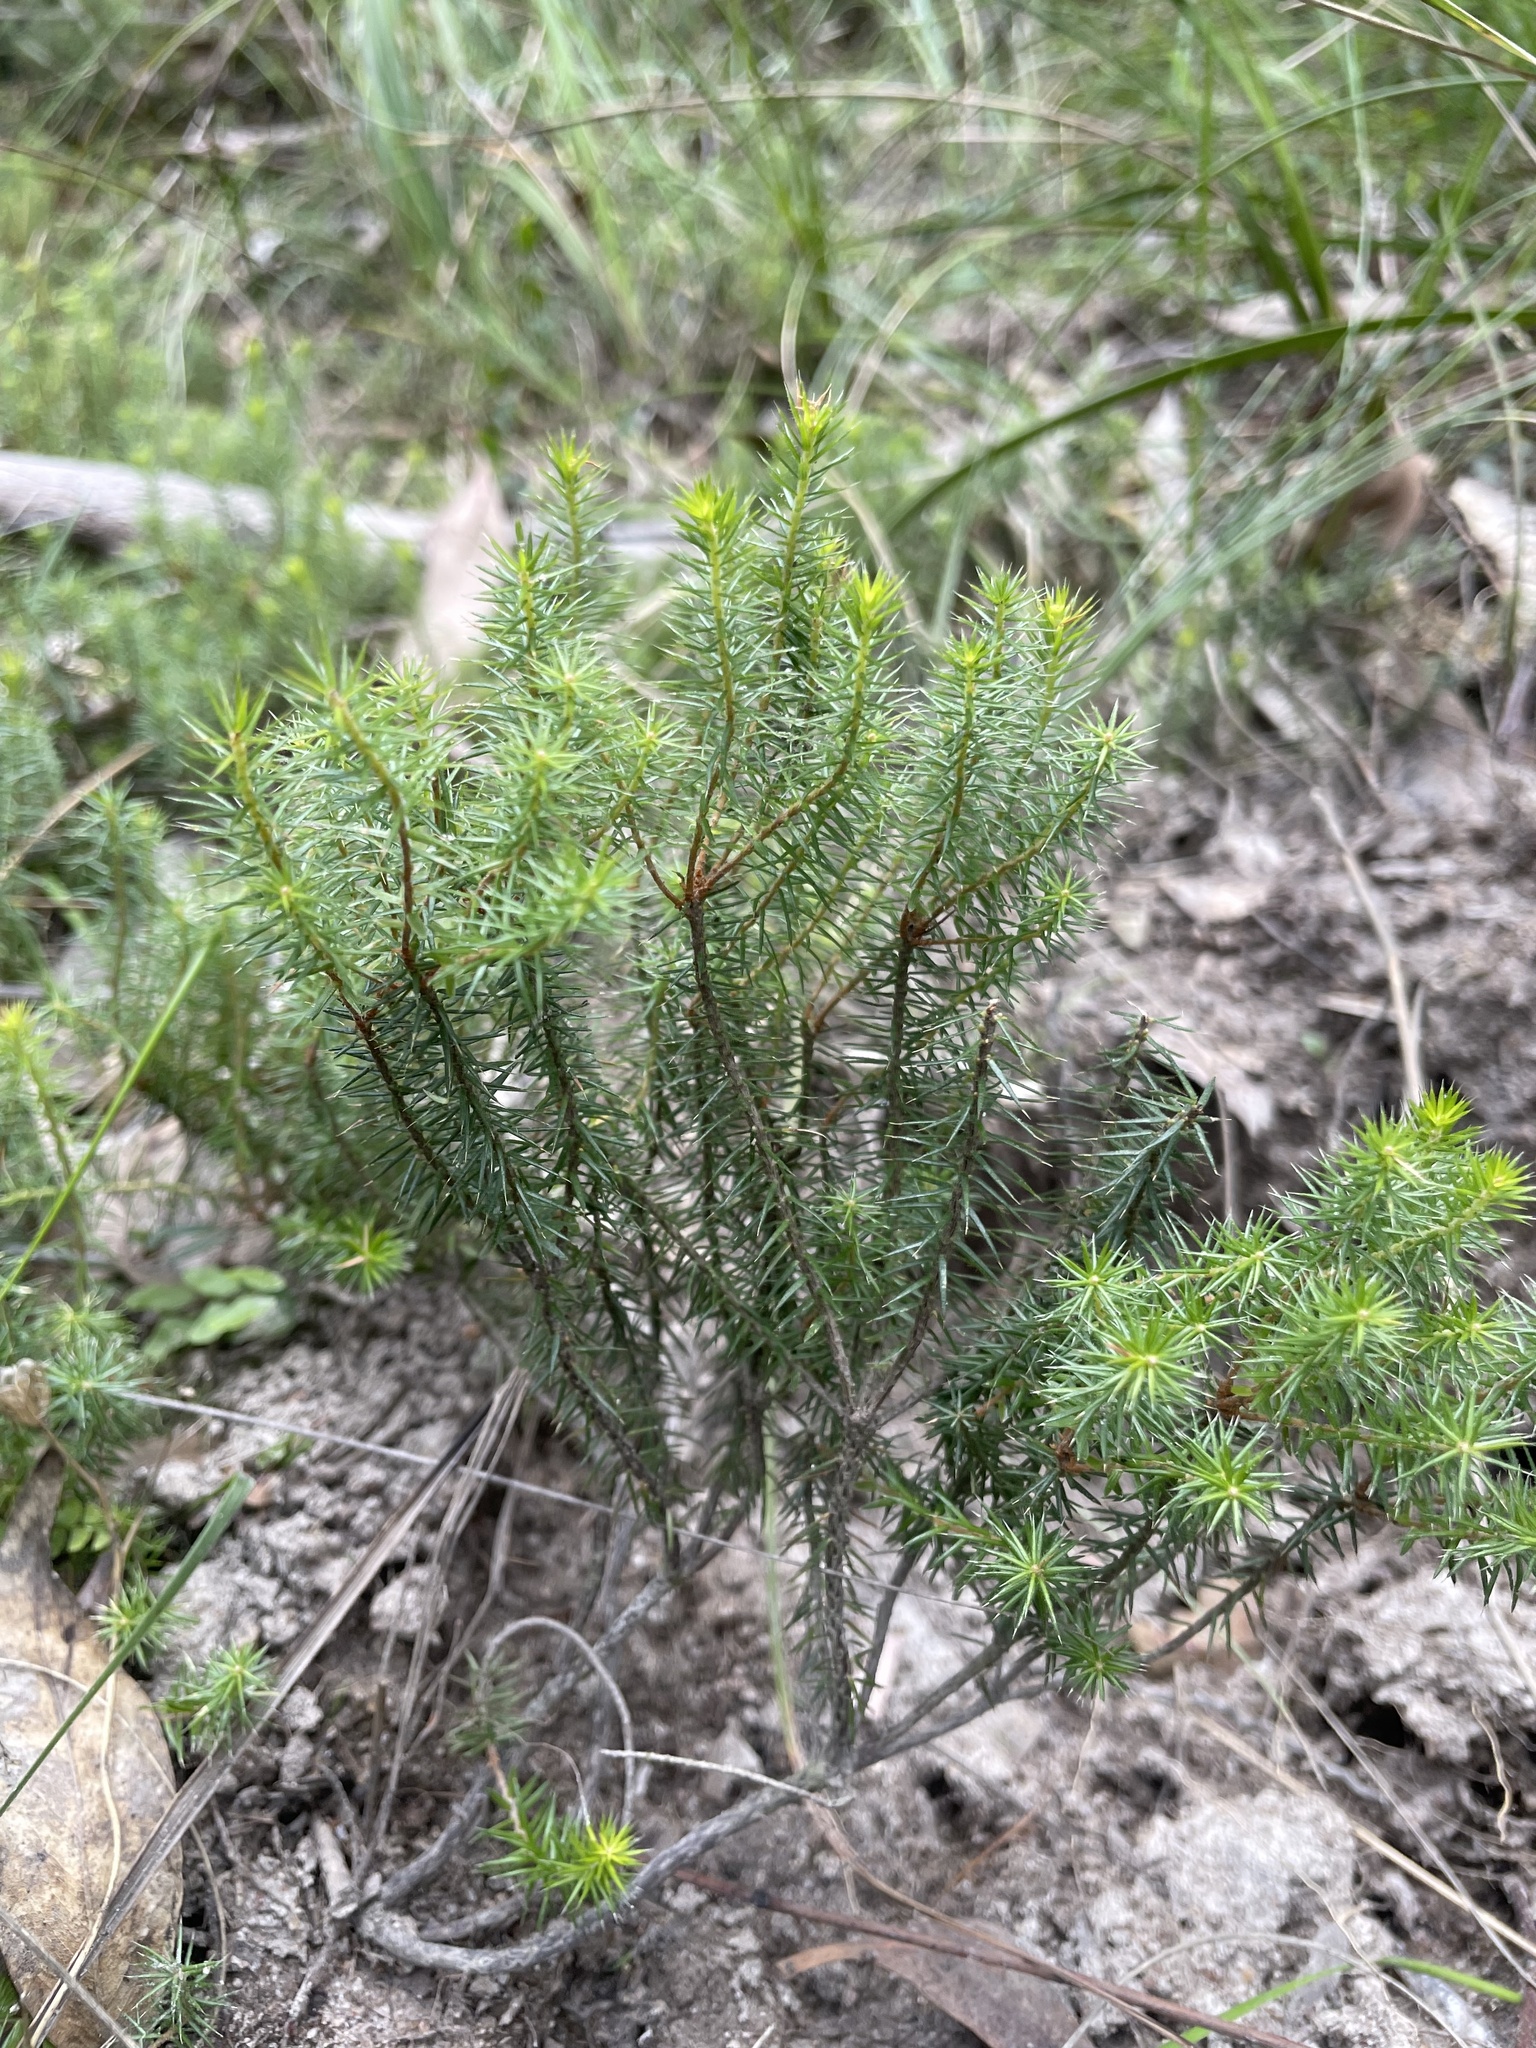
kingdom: Plantae
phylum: Tracheophyta
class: Magnoliopsida
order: Ericales
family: Ericaceae
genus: Acrotriche
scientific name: Acrotriche serrulata
